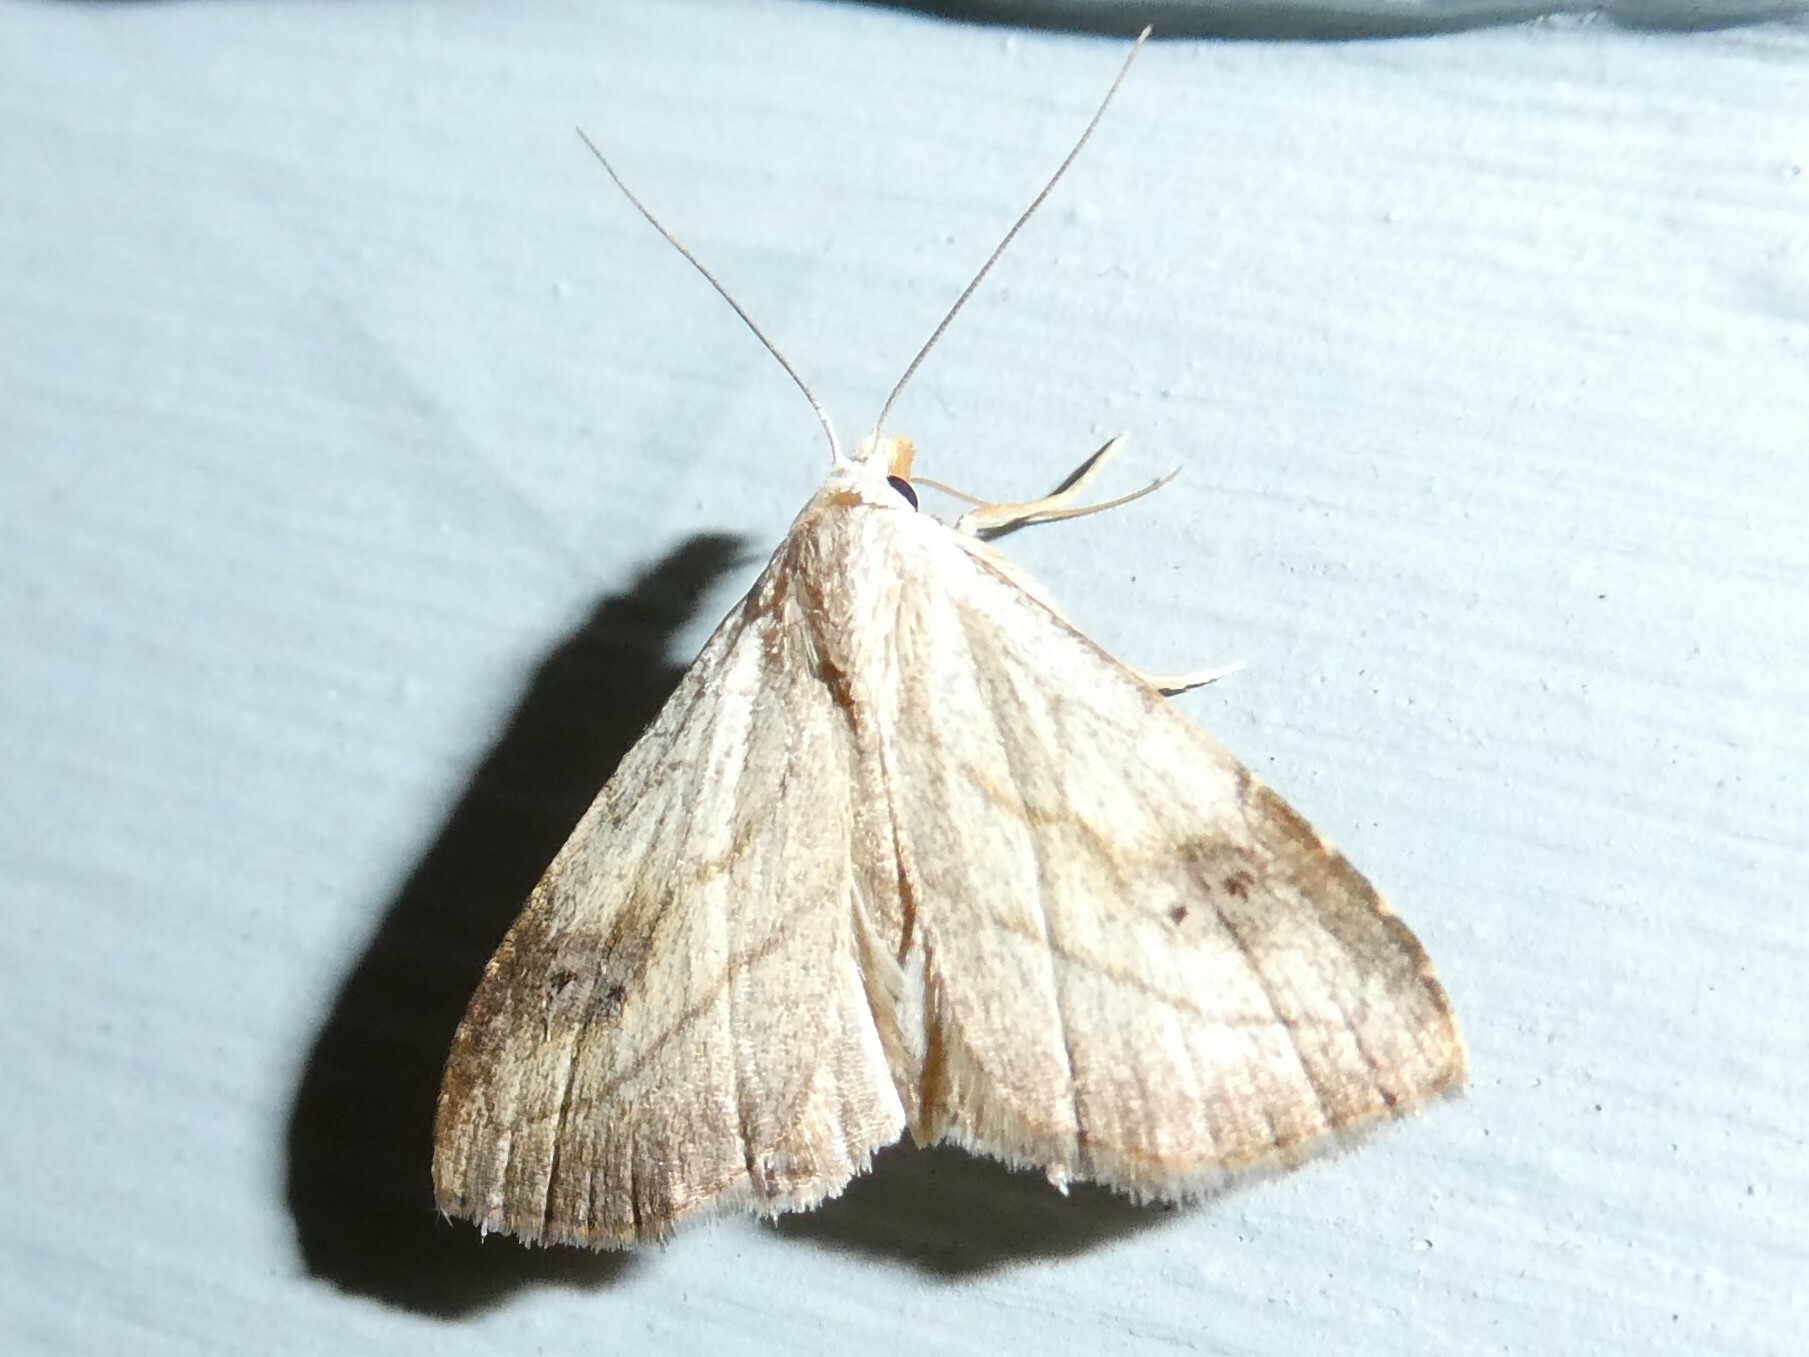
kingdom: Animalia
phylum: Arthropoda
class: Insecta
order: Lepidoptera
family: Erebidae
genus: Rivula
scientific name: Rivula propinqualis
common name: Spotted grass moth
